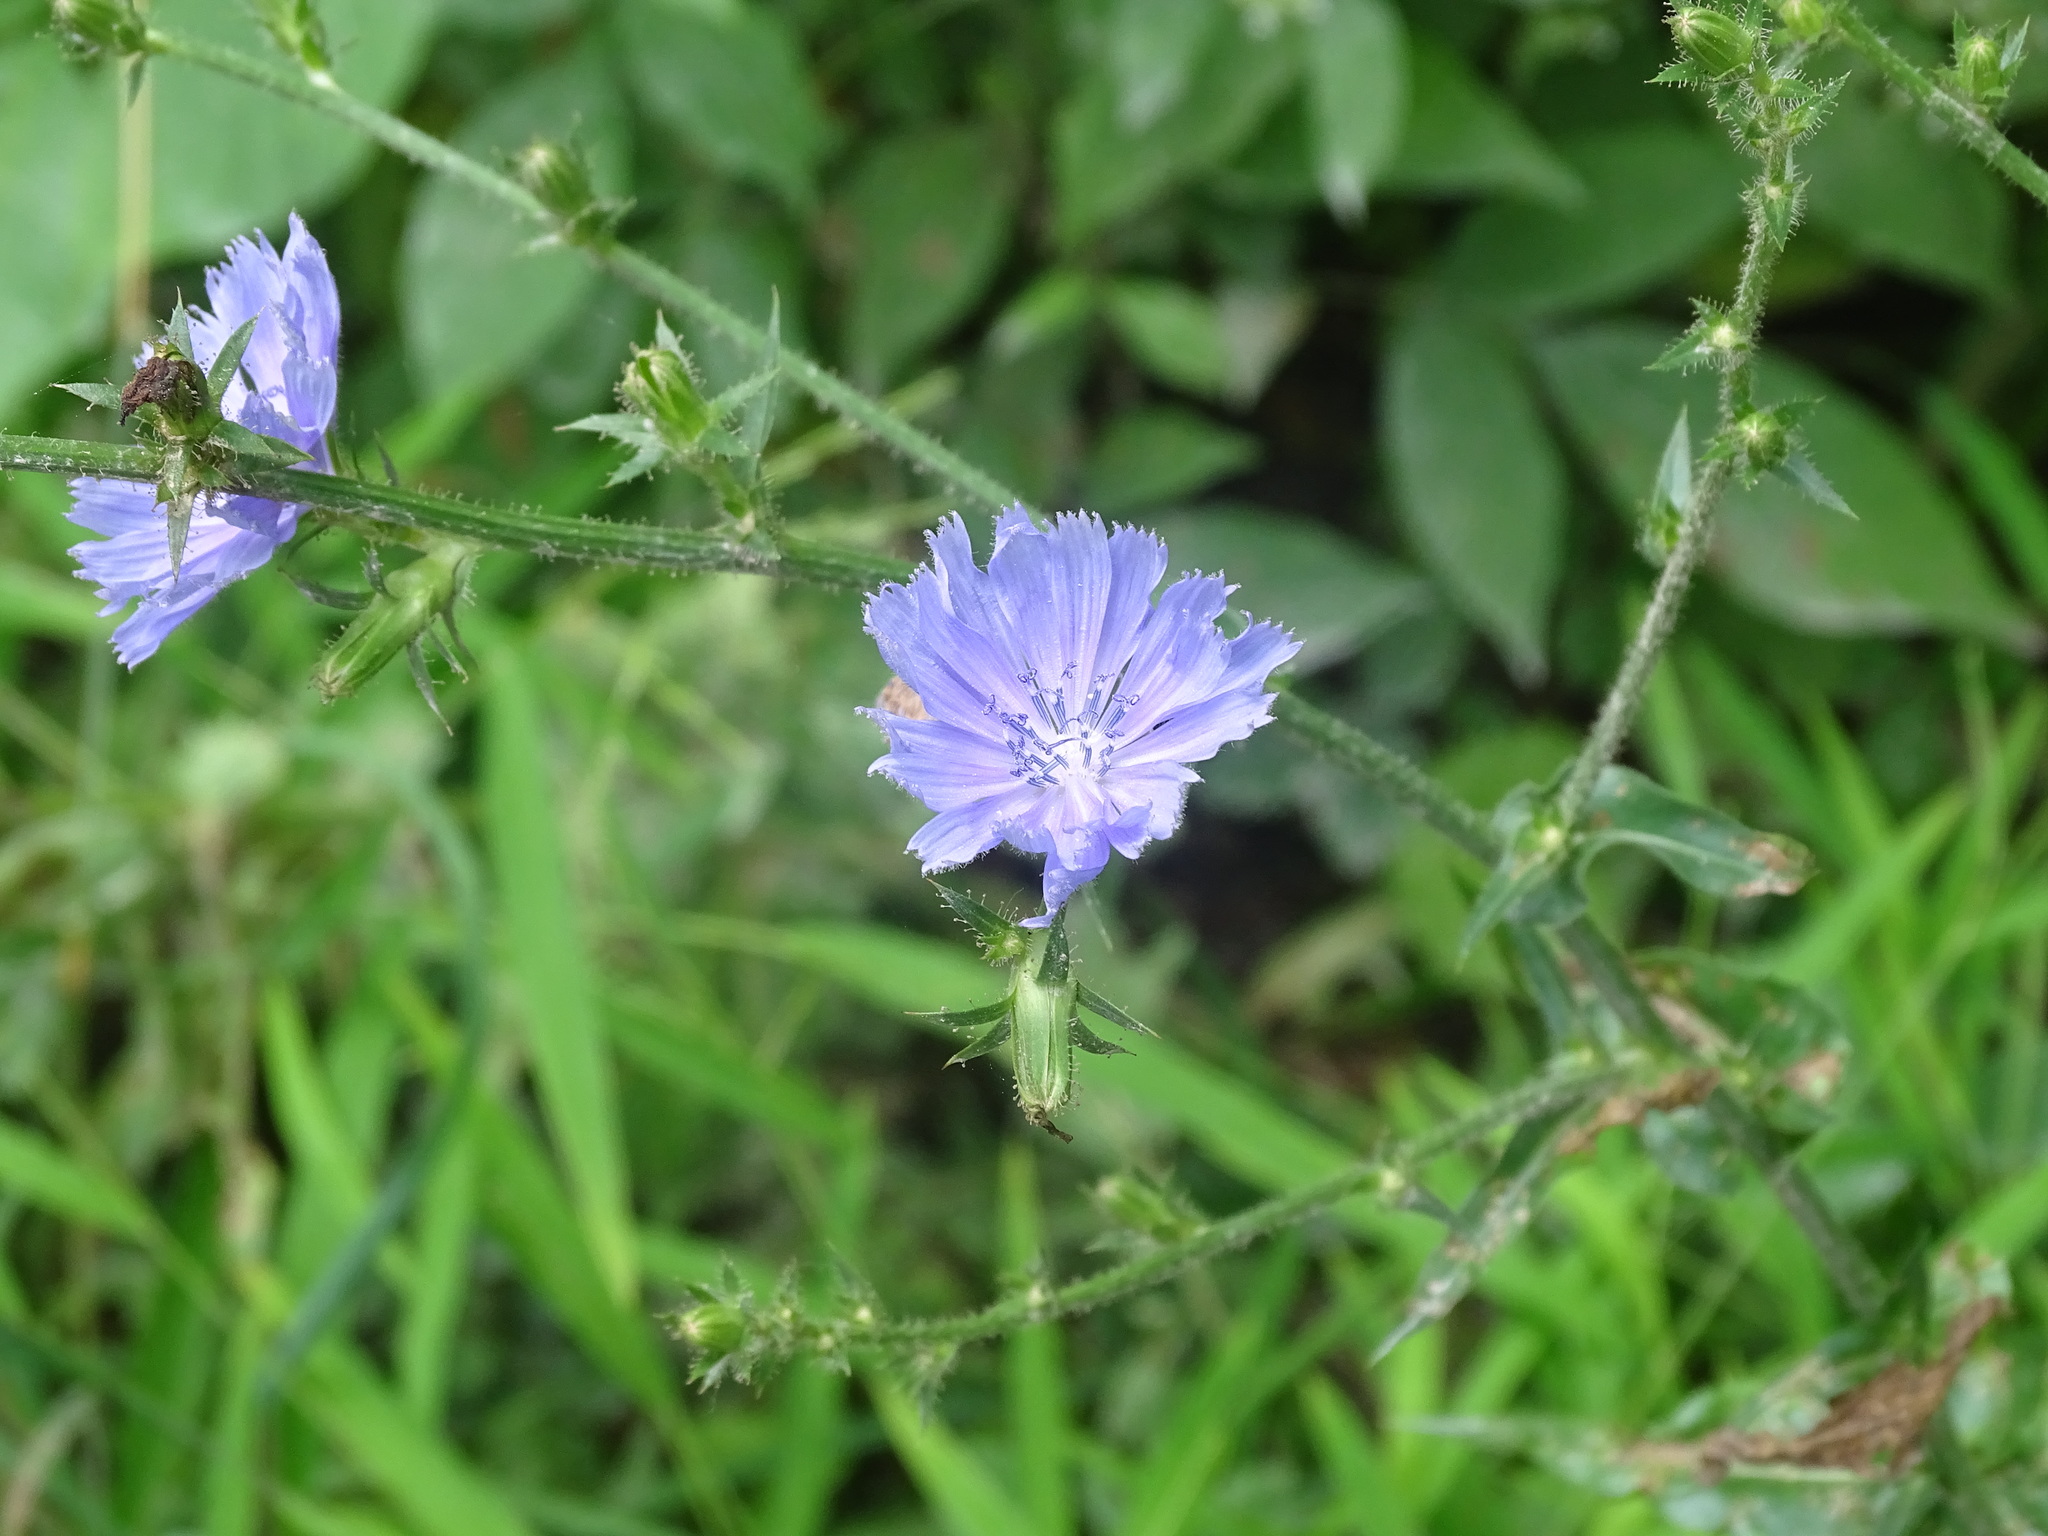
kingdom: Plantae
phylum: Tracheophyta
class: Magnoliopsida
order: Asterales
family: Asteraceae
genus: Cichorium
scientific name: Cichorium intybus
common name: Chicory
